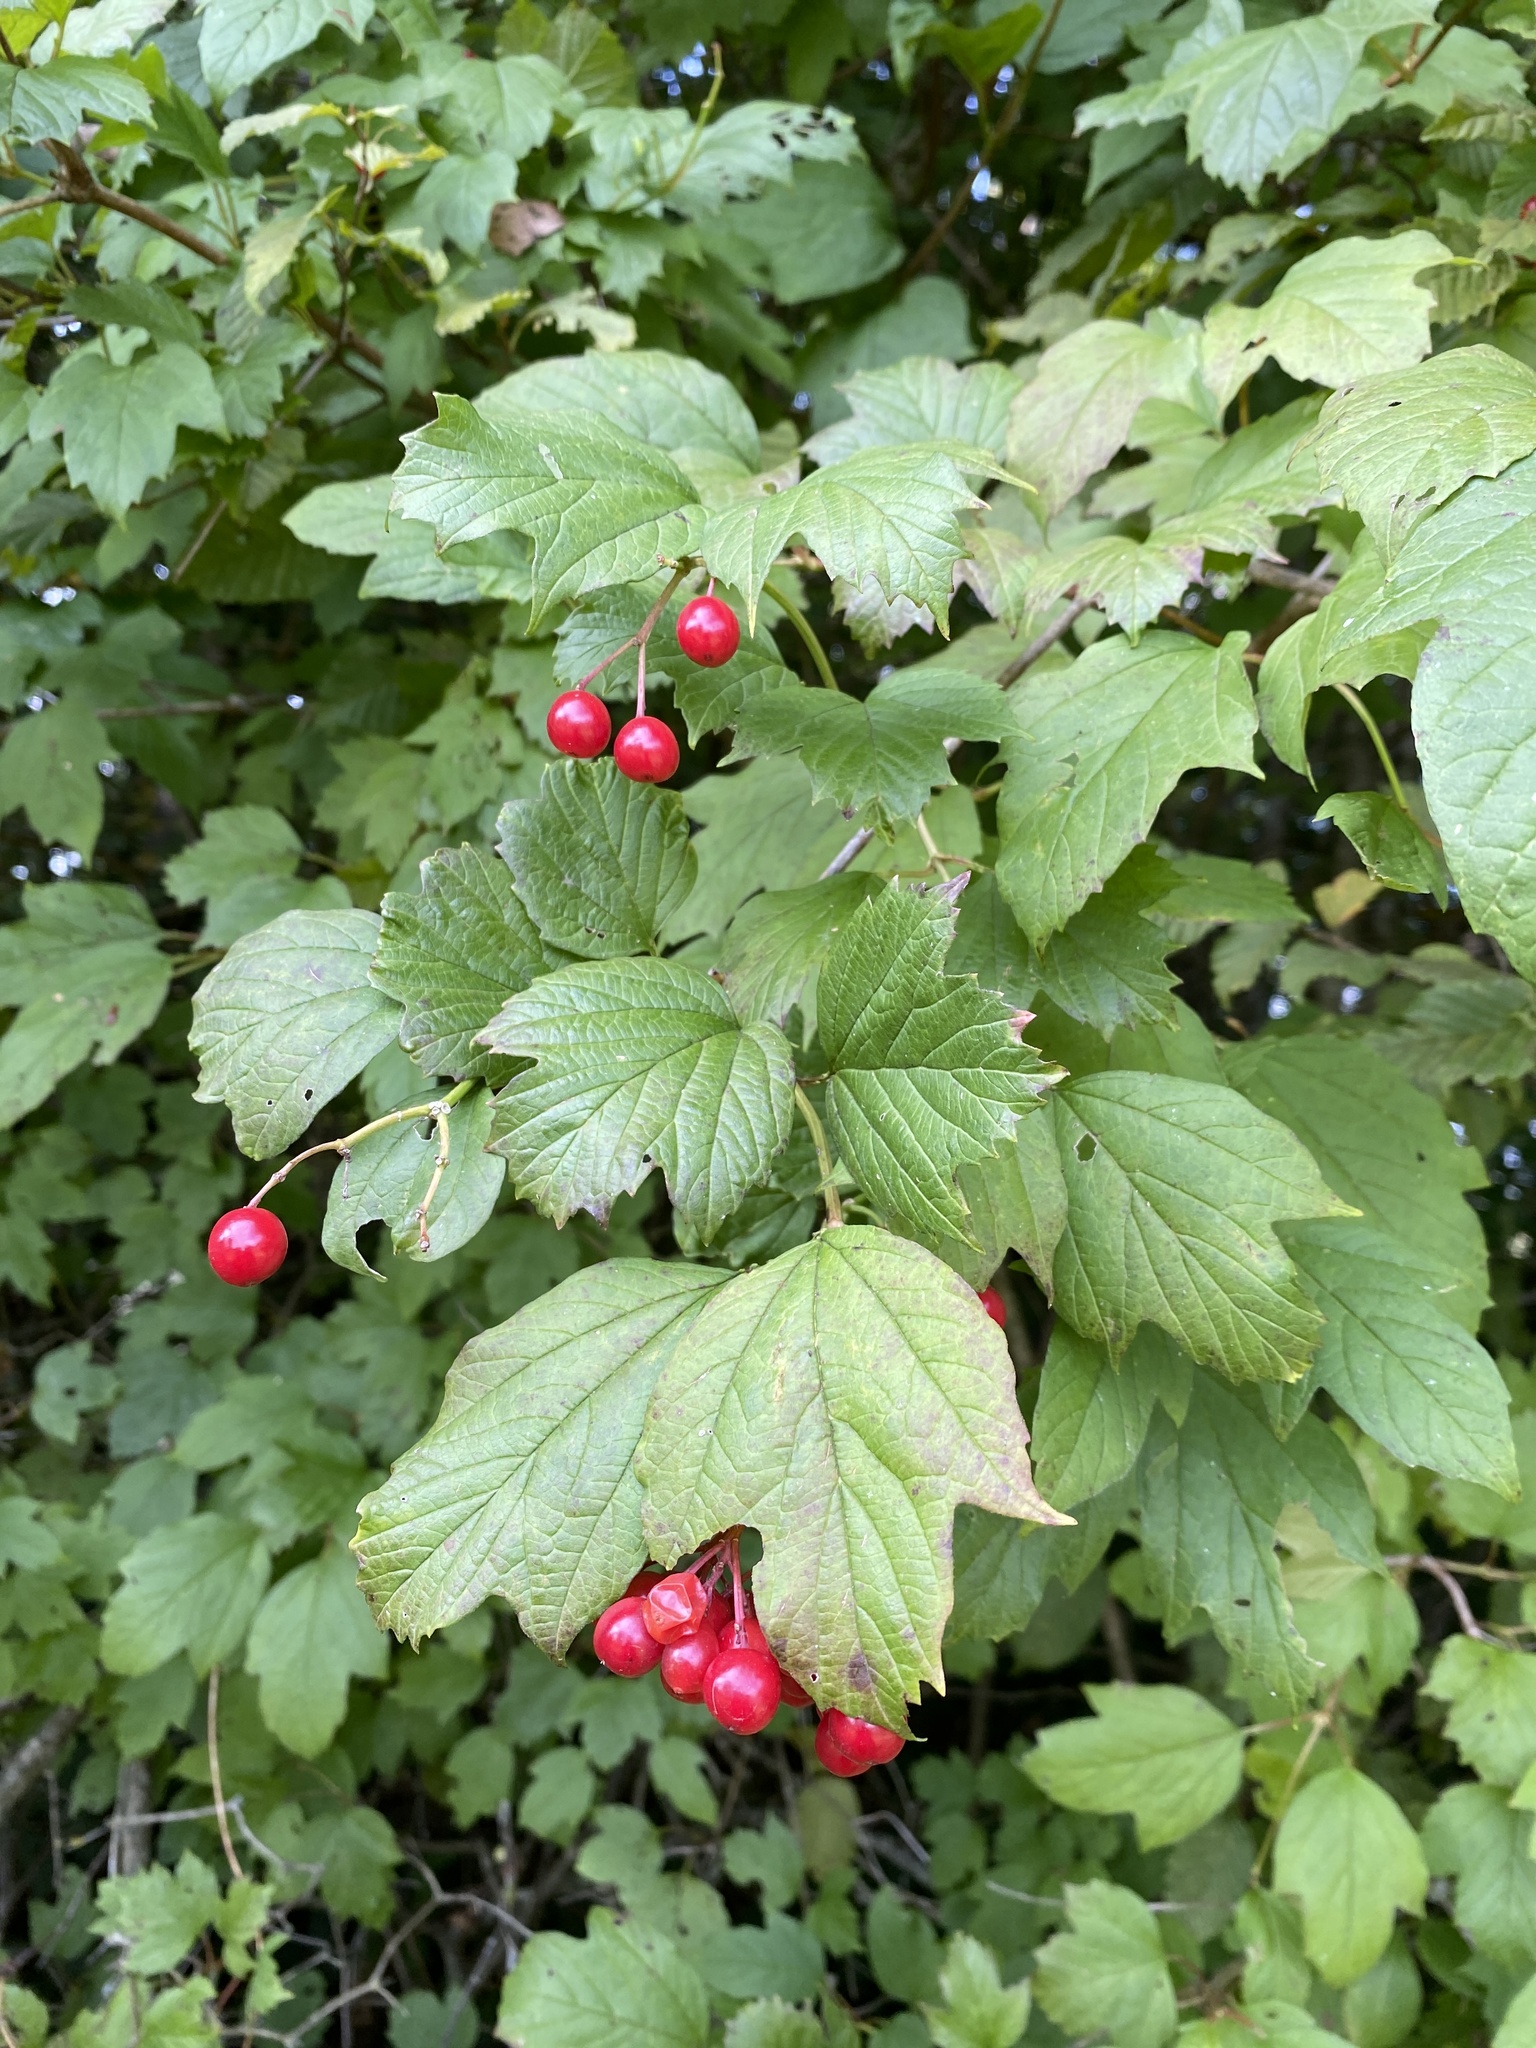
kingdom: Plantae
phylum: Tracheophyta
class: Magnoliopsida
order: Dipsacales
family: Viburnaceae
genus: Viburnum
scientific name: Viburnum opulus
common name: Guelder-rose
